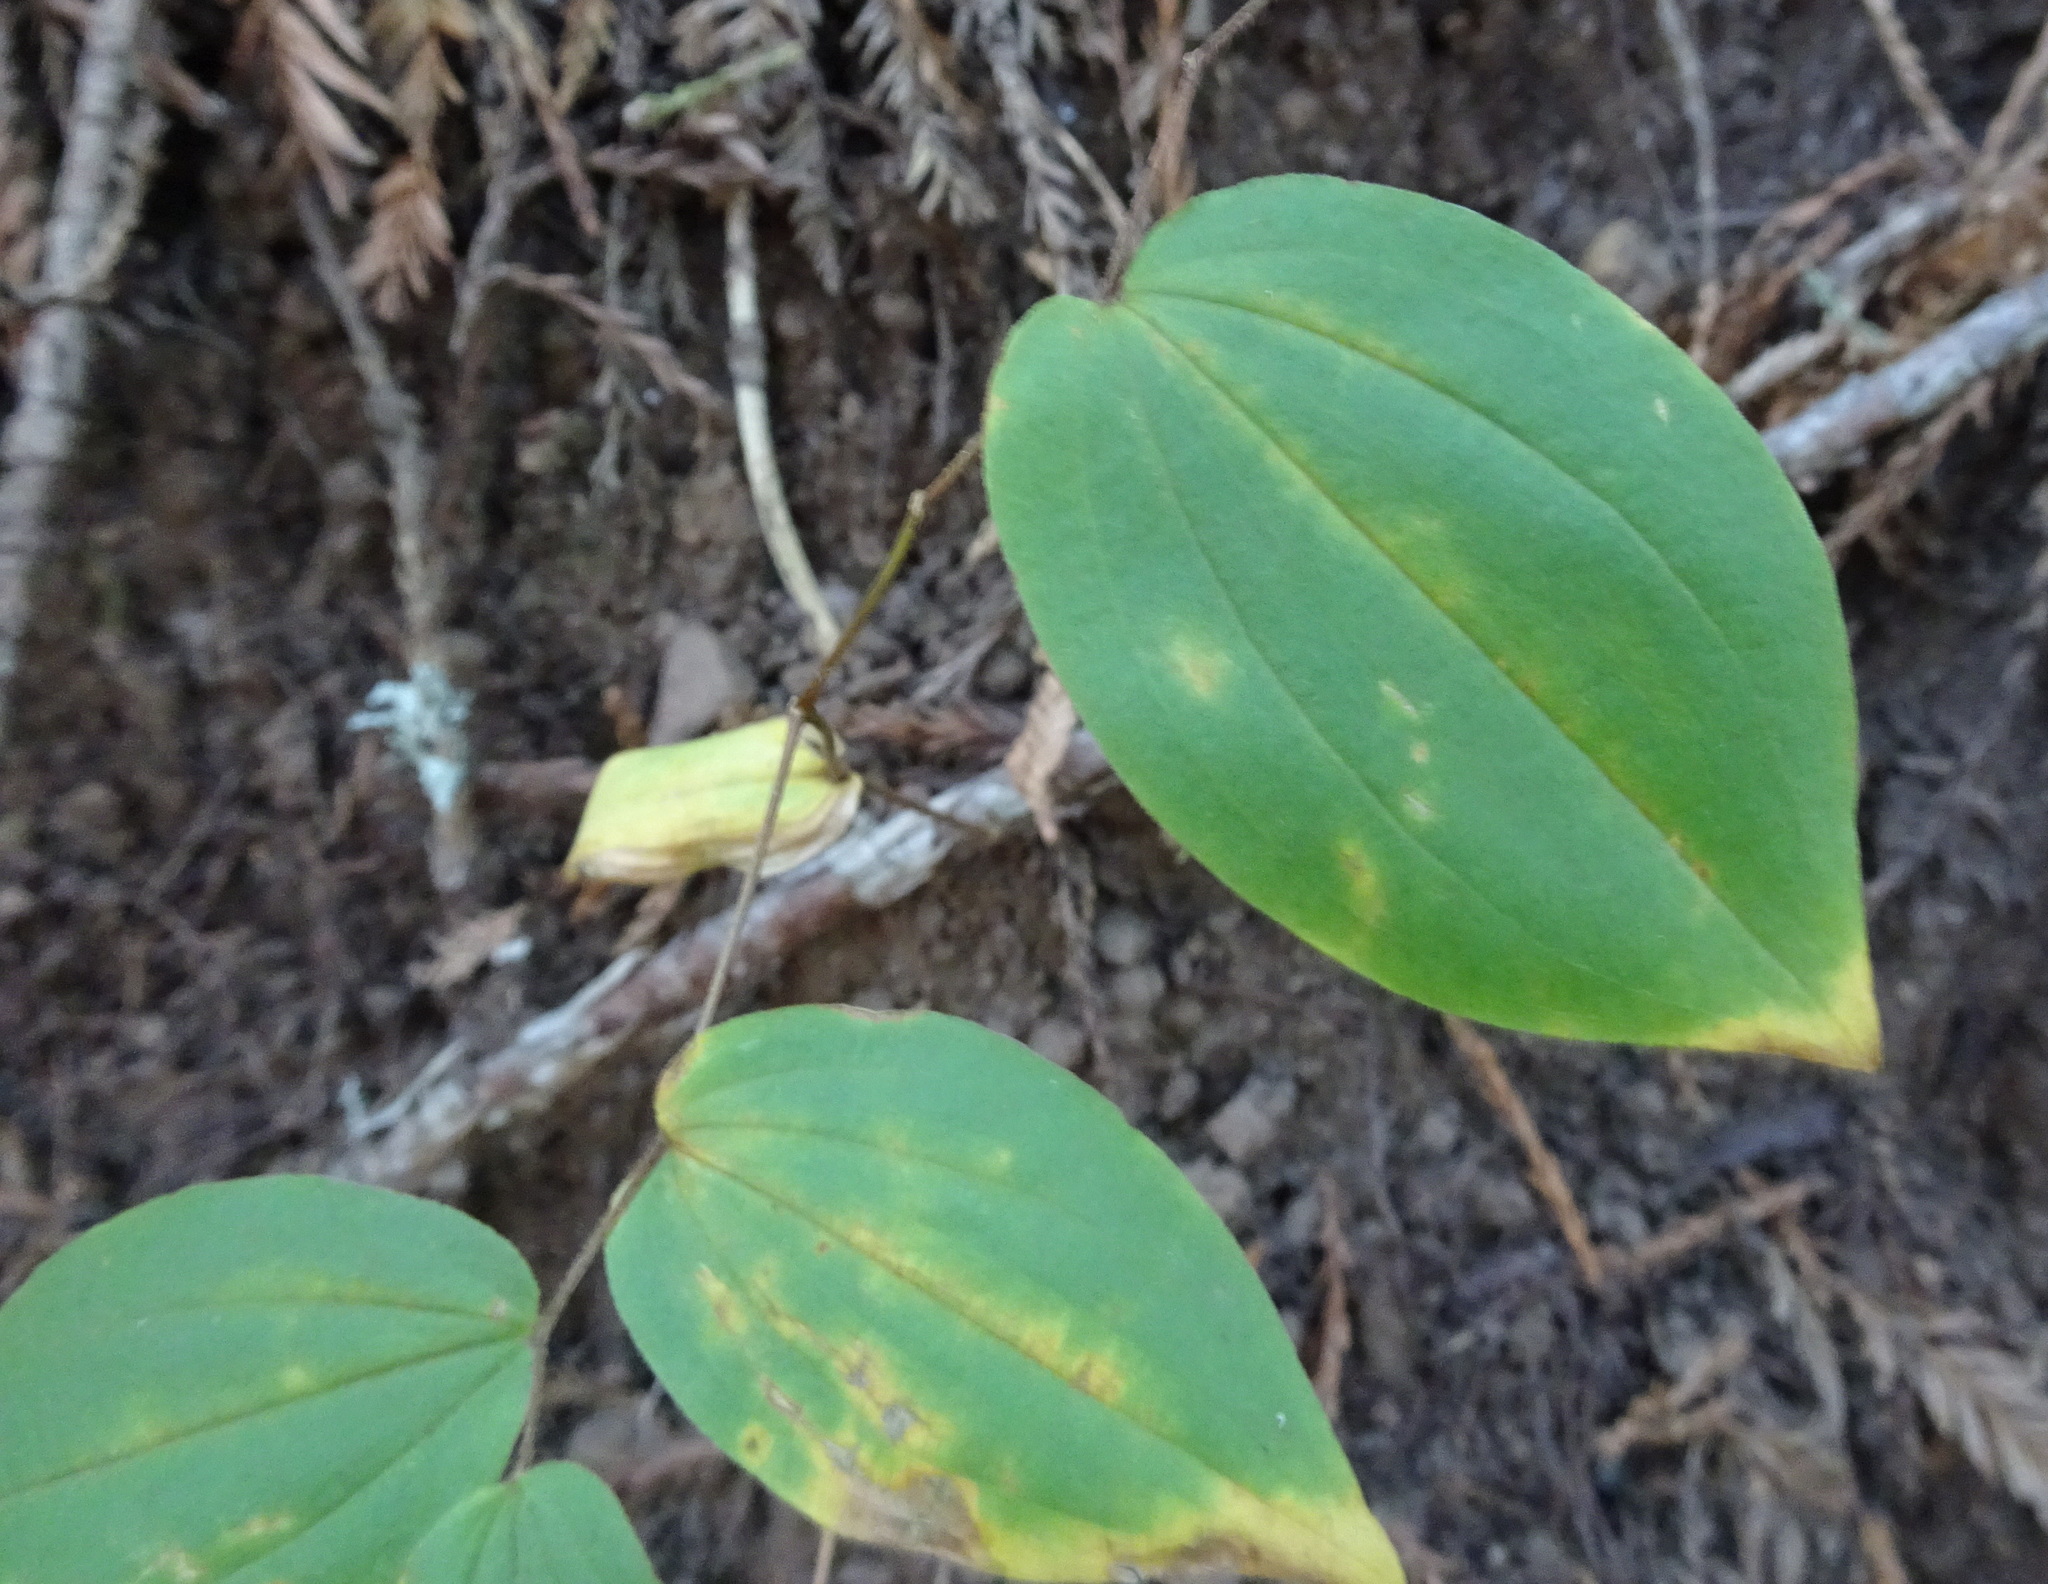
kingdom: Plantae
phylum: Tracheophyta
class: Liliopsida
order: Liliales
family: Liliaceae
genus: Prosartes
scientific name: Prosartes
